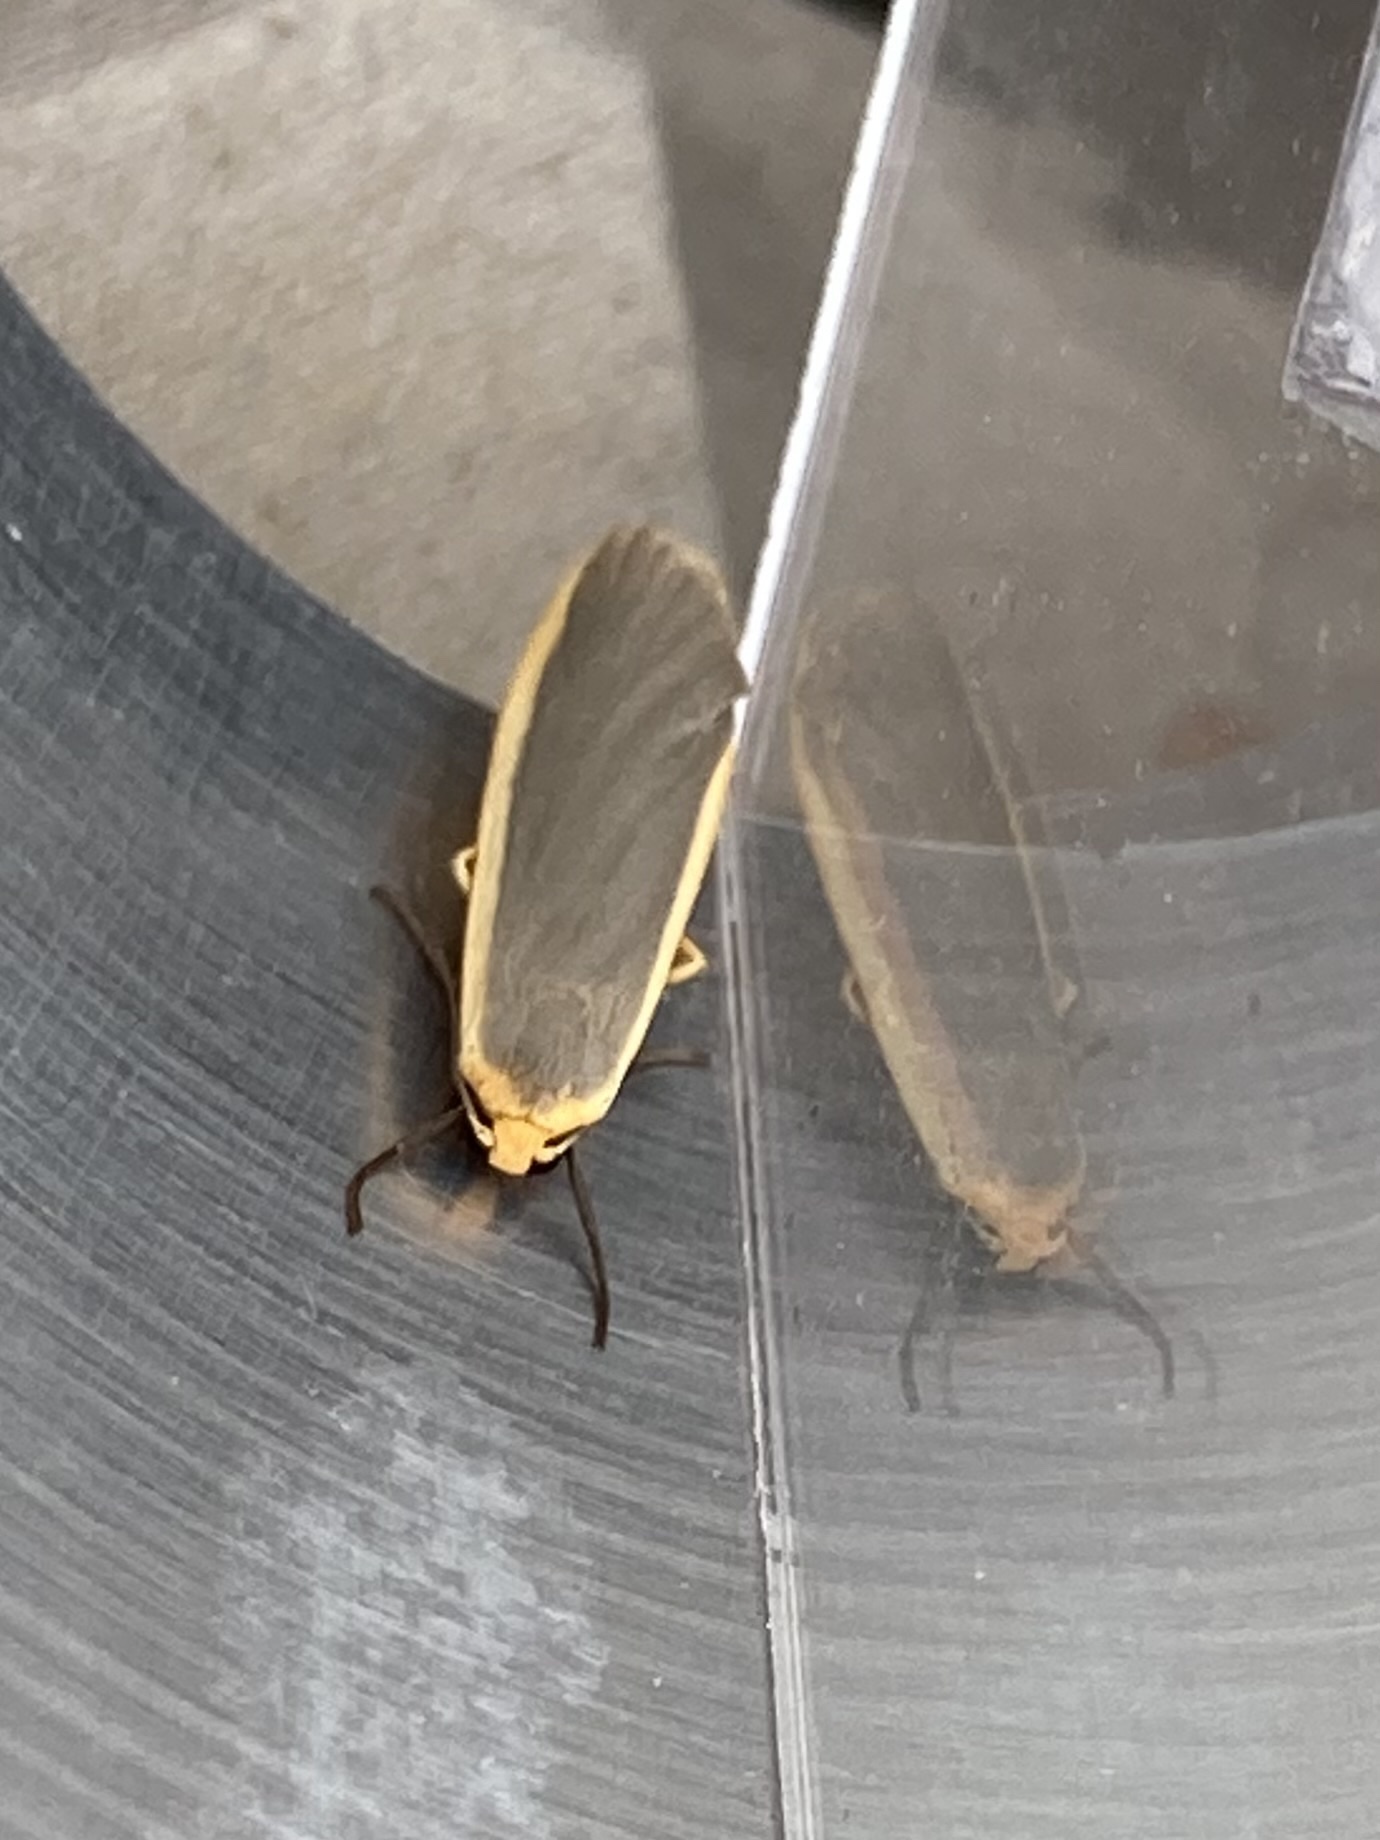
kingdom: Animalia
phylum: Arthropoda
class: Insecta
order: Lepidoptera
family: Erebidae
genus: Nyea
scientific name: Nyea lurideola
